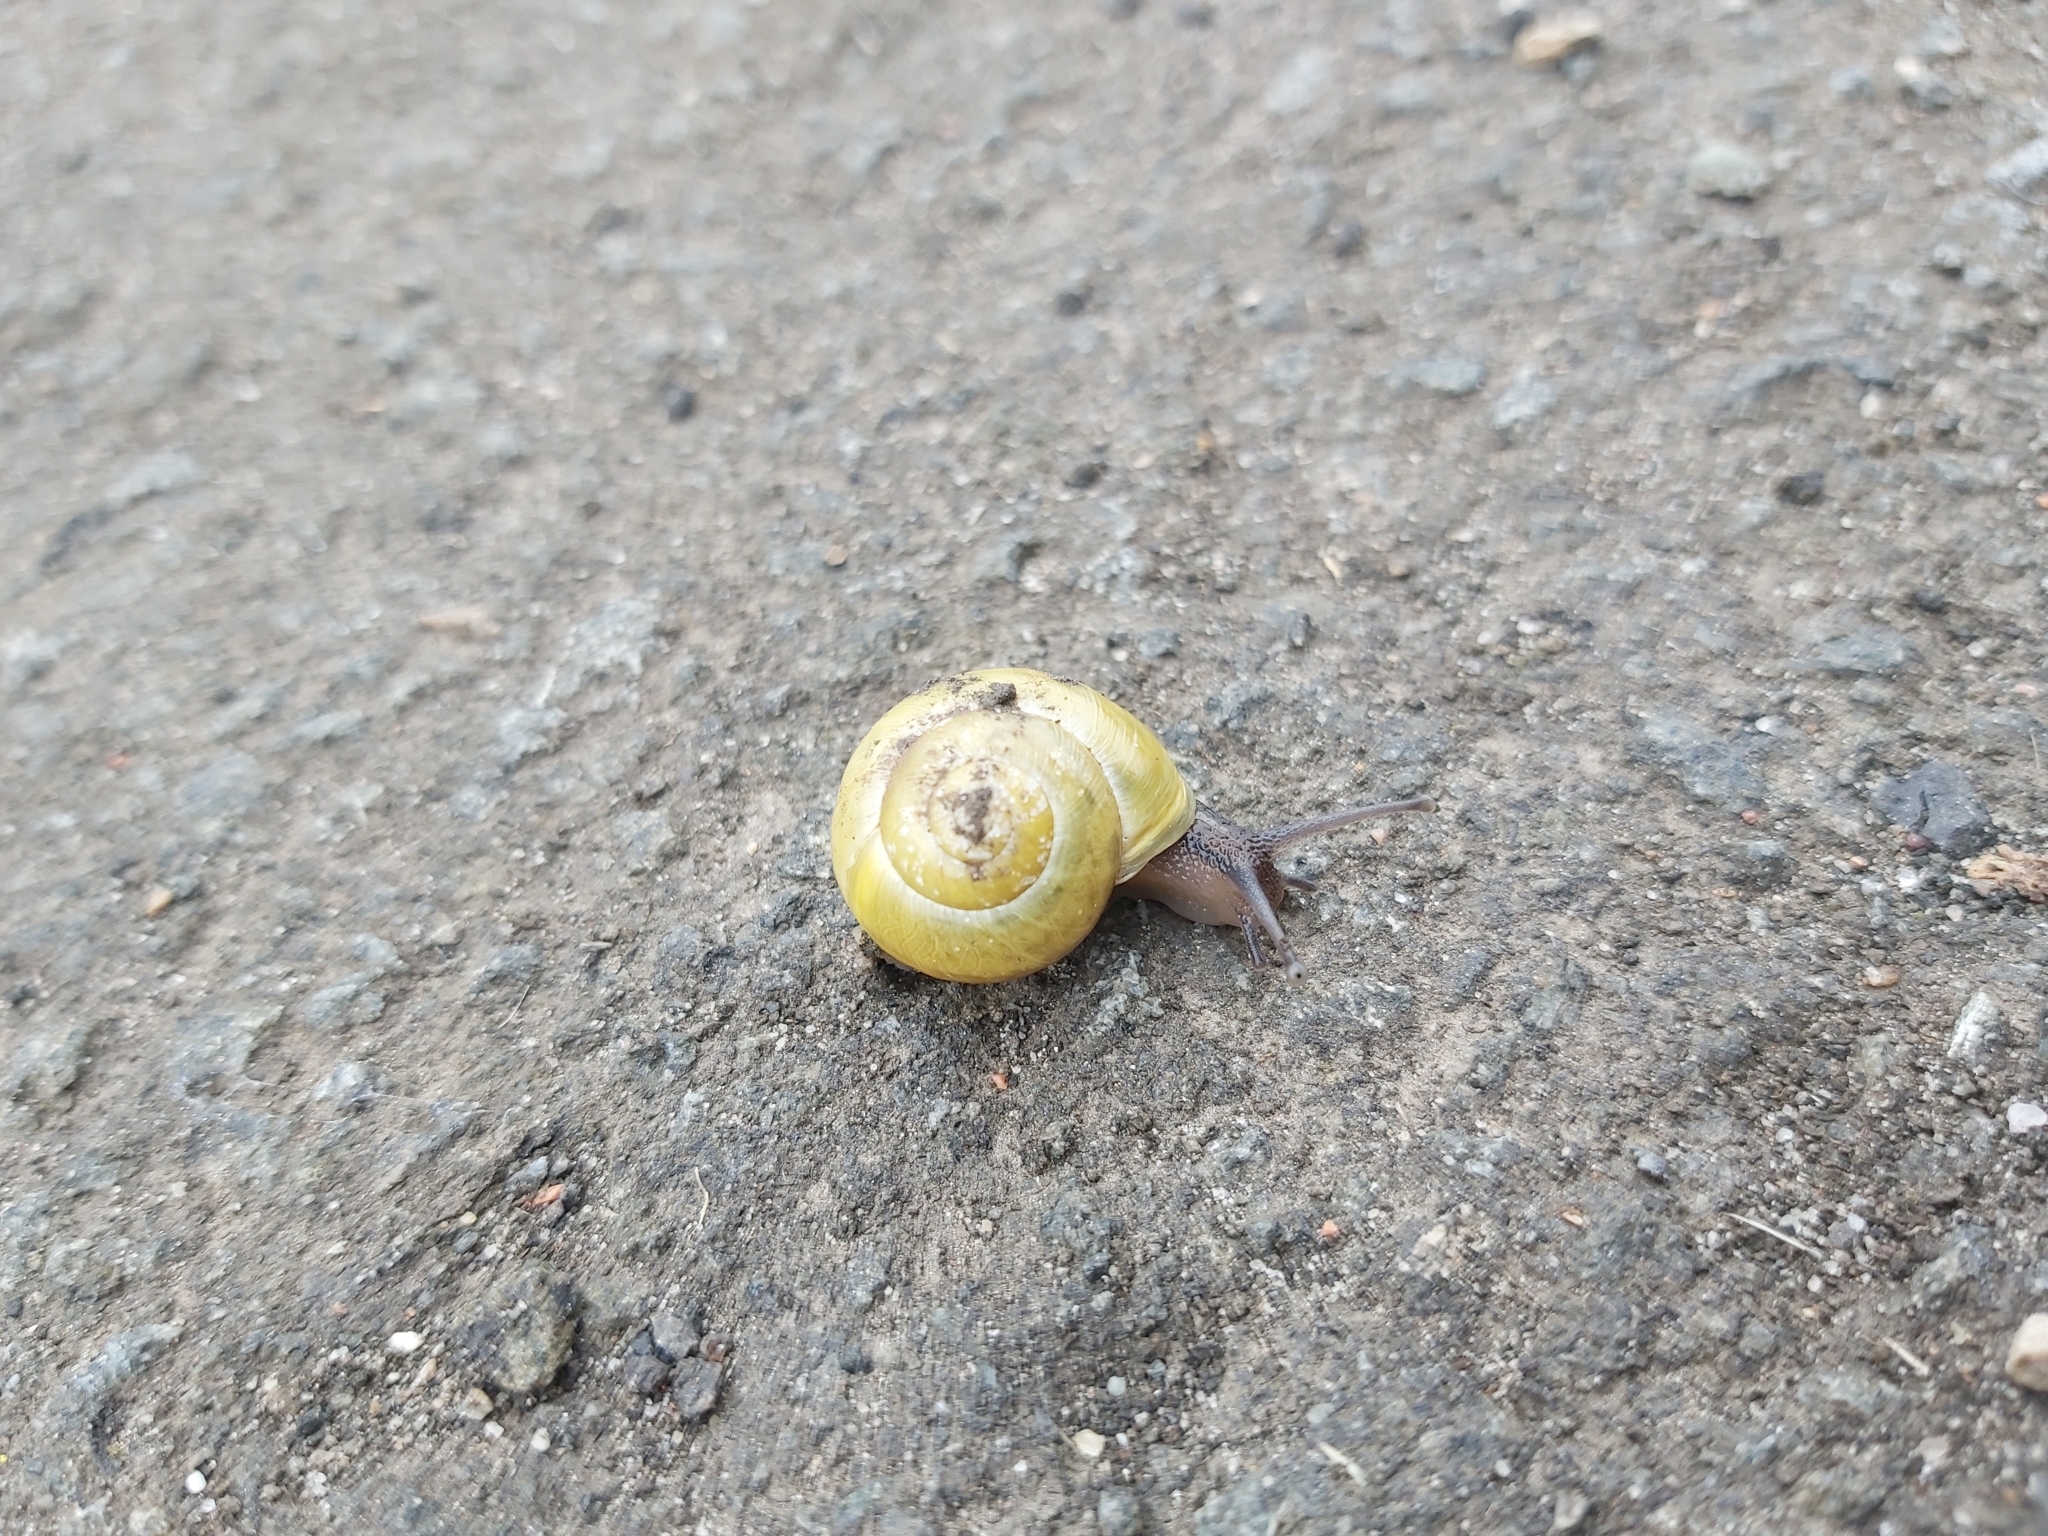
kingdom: Animalia
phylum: Mollusca
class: Gastropoda
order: Stylommatophora
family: Helicidae
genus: Cepaea
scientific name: Cepaea hortensis
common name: White-lip gardensnail
